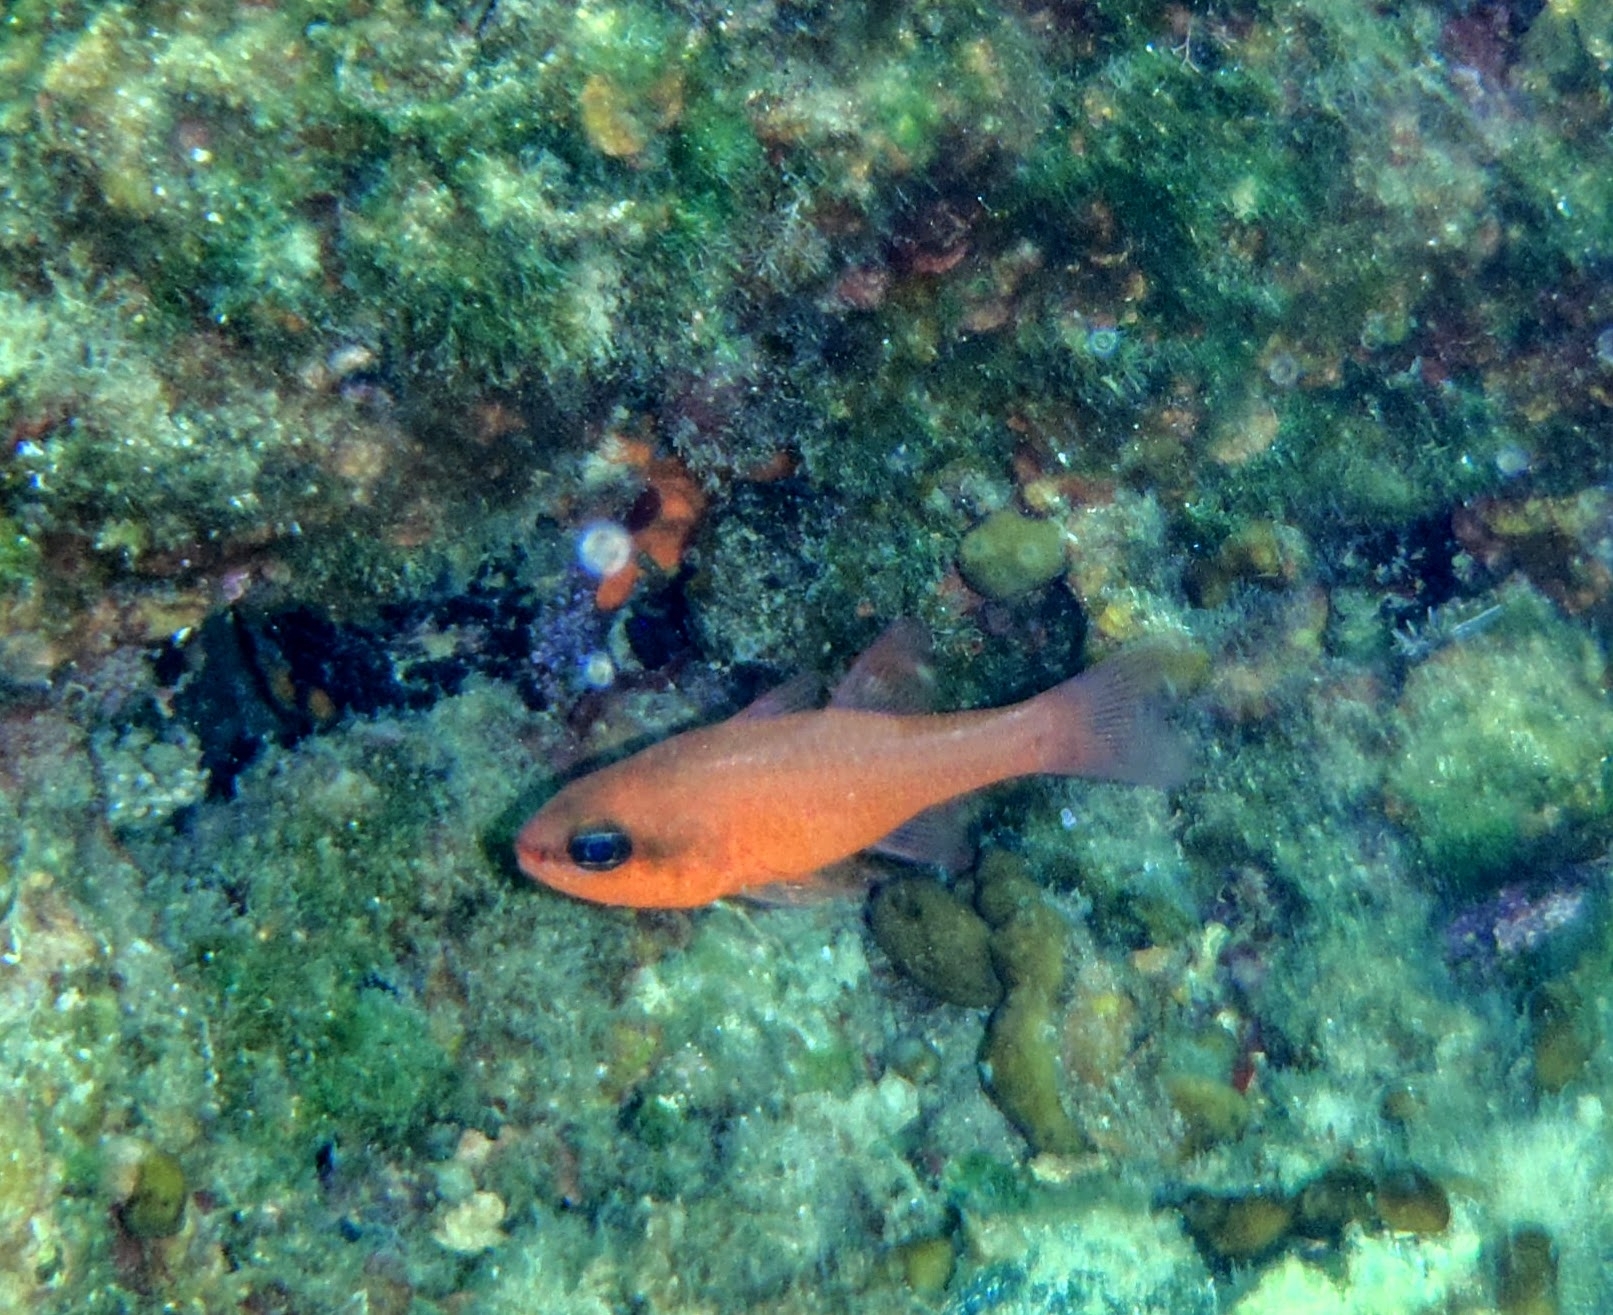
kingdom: Animalia
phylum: Chordata
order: Perciformes
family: Apogonidae
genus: Apogon
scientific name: Apogon imberbis
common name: Cardinal fish
